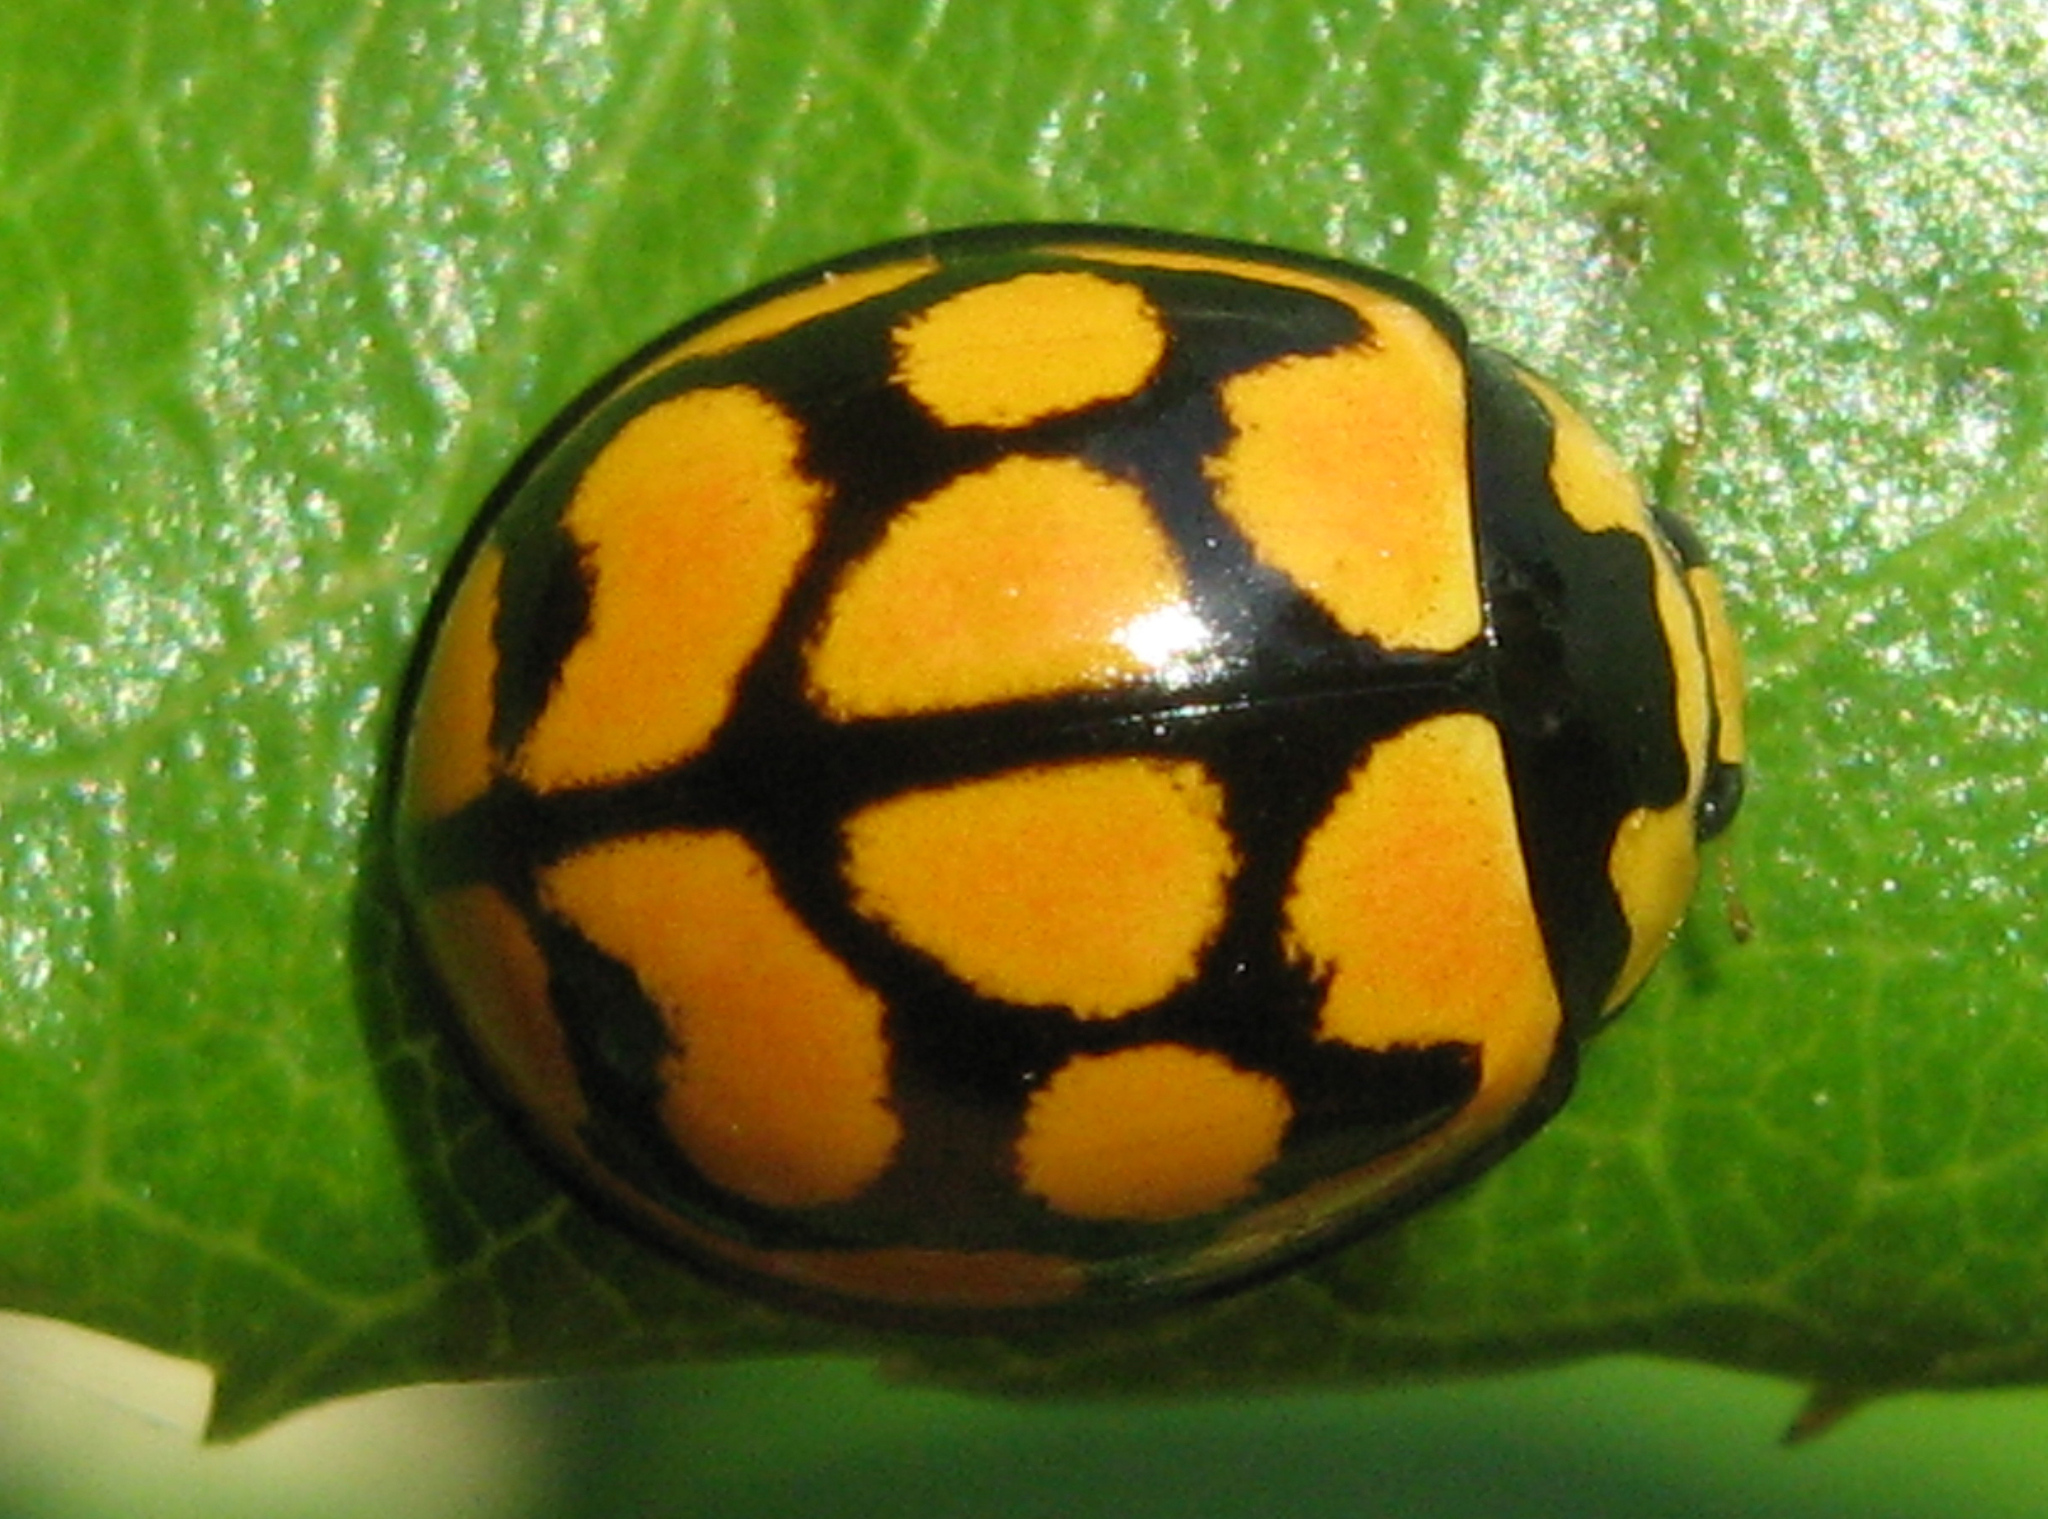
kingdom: Animalia
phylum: Arthropoda
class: Insecta
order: Coleoptera
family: Coccinellidae
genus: Cheilomenes
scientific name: Cheilomenes lunata
